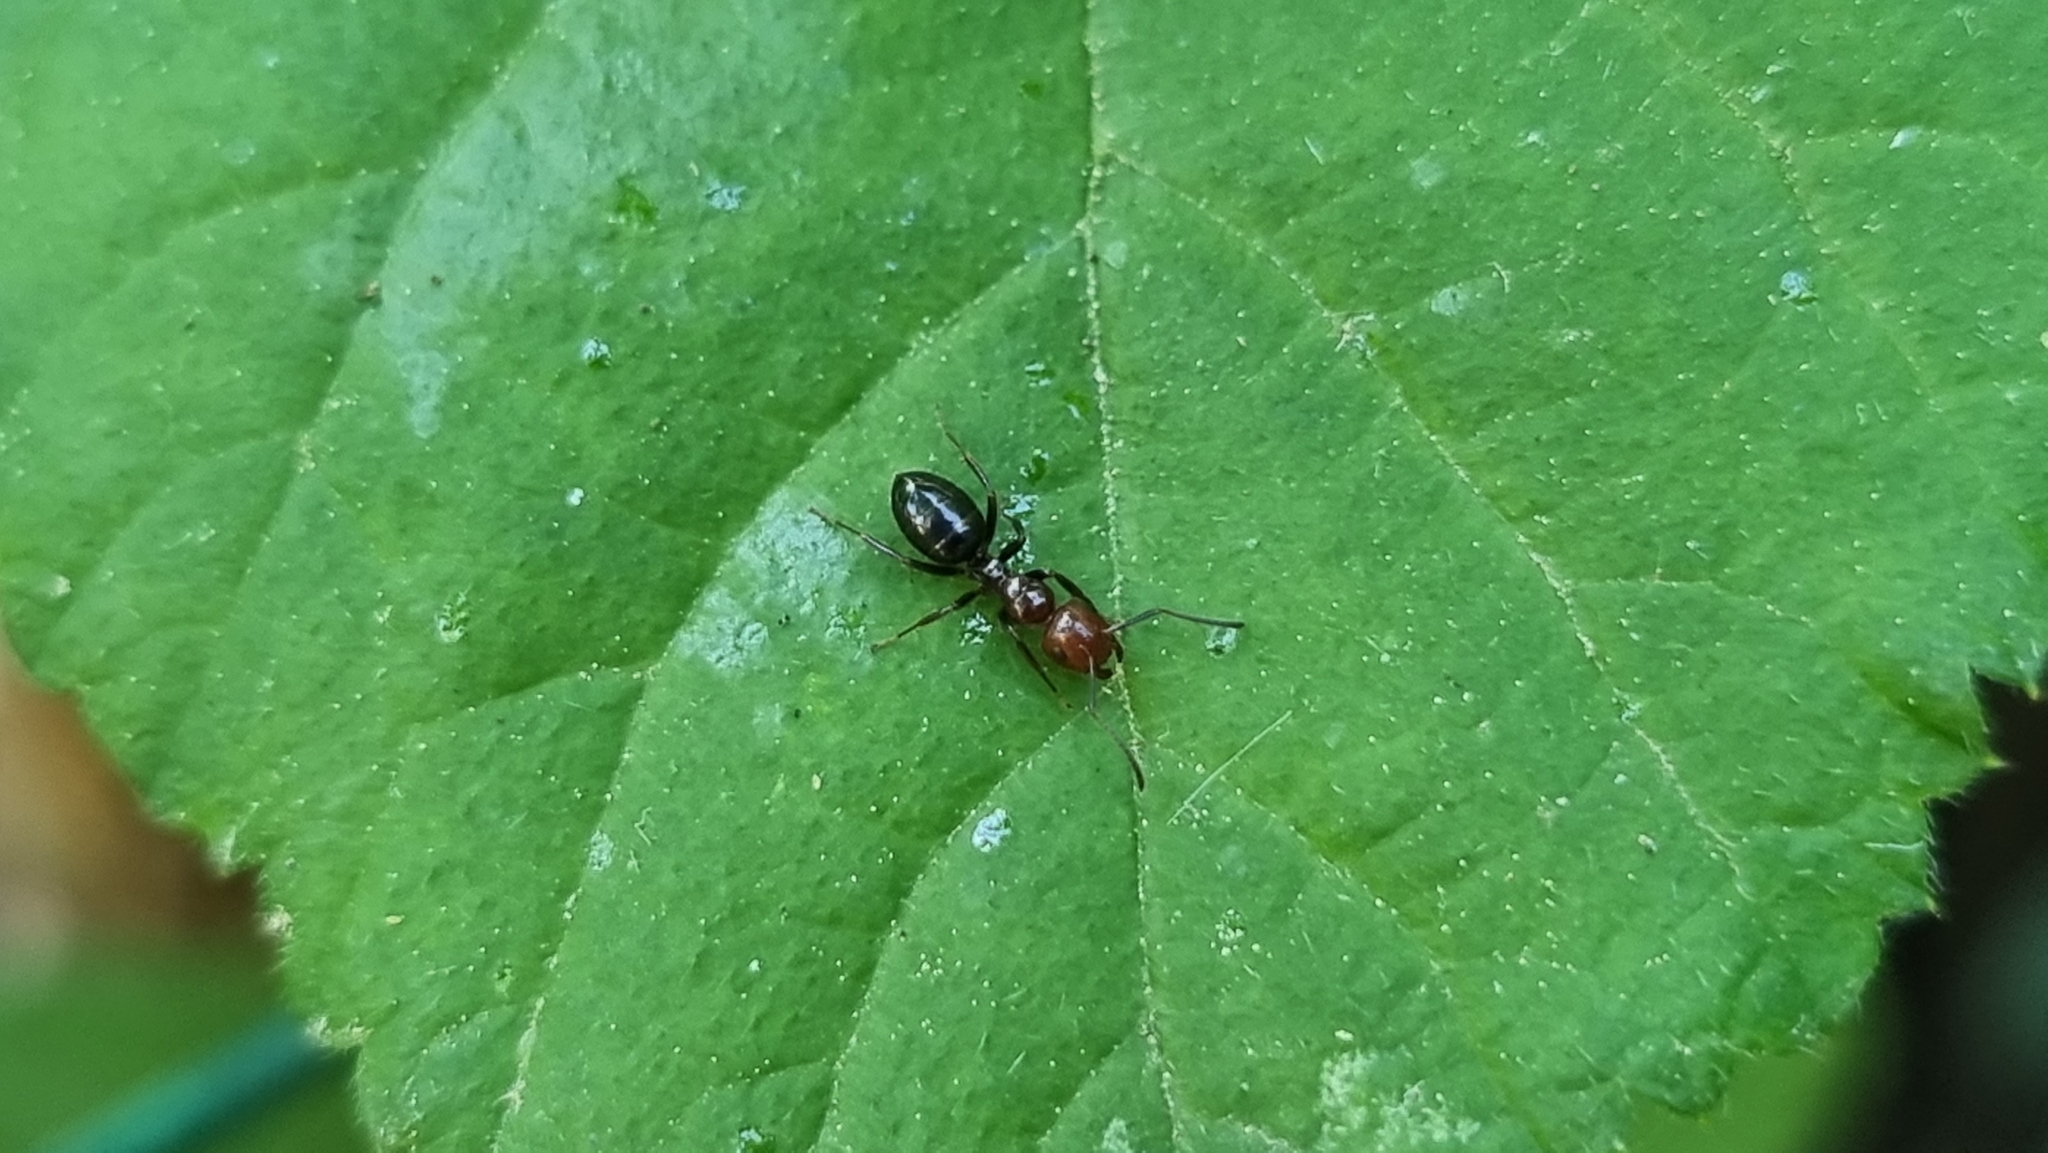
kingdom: Animalia
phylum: Arthropoda
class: Insecta
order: Hymenoptera
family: Formicidae
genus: Camponotus
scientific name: Camponotus lateralis
